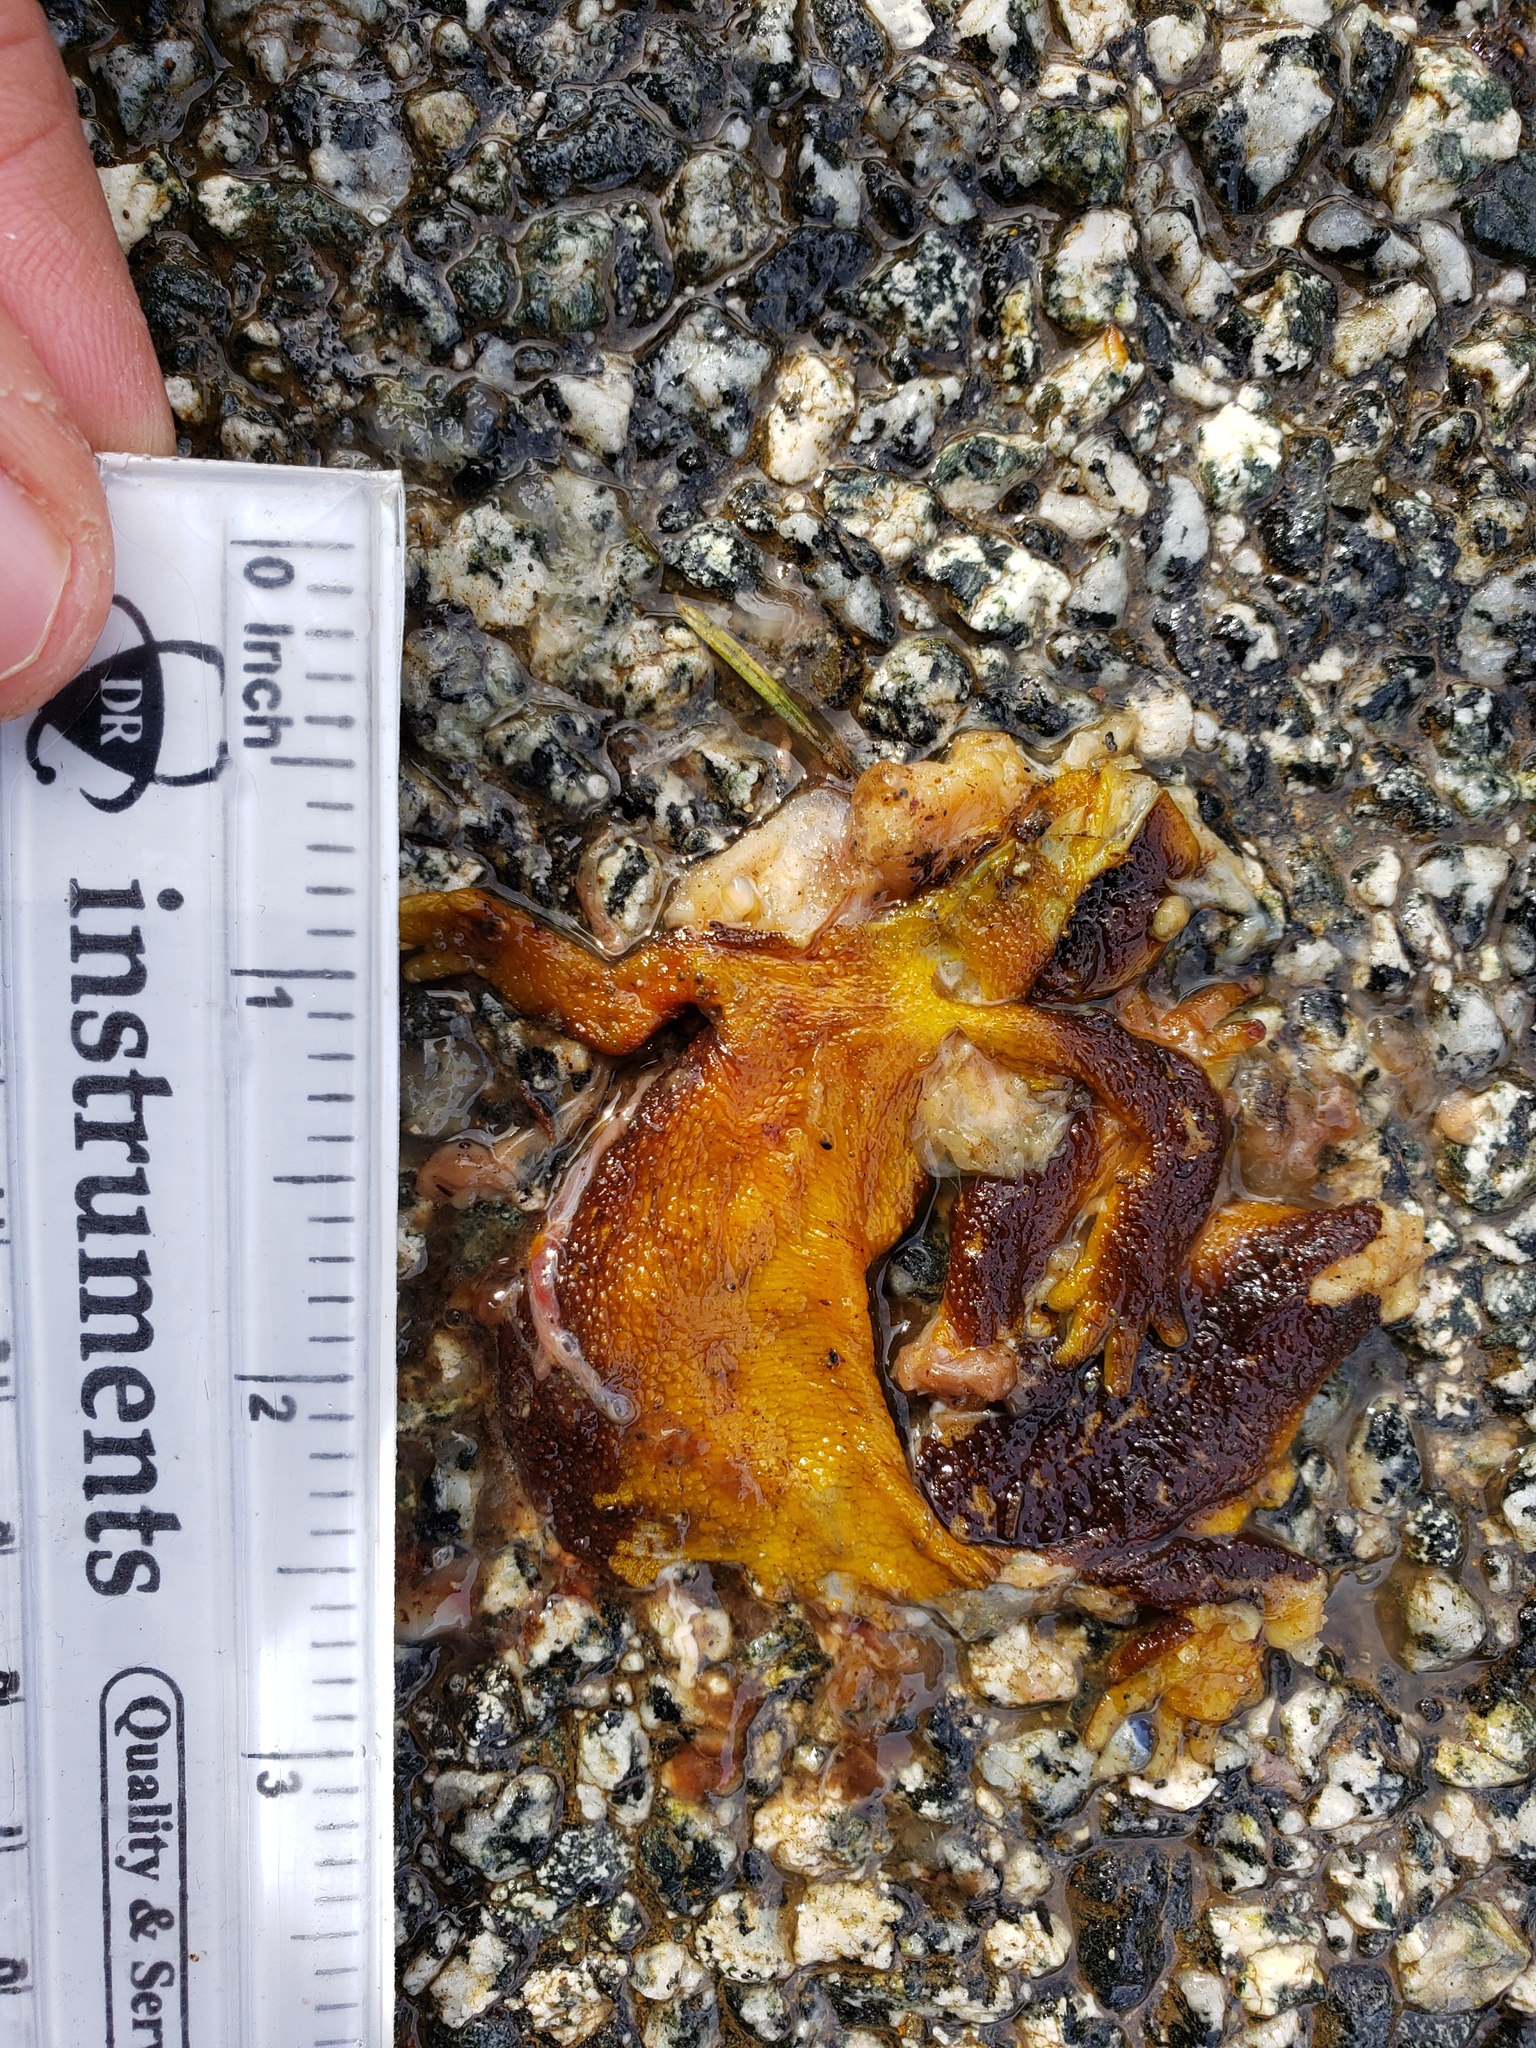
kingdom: Animalia
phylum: Chordata
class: Amphibia
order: Caudata
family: Salamandridae
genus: Taricha
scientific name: Taricha
